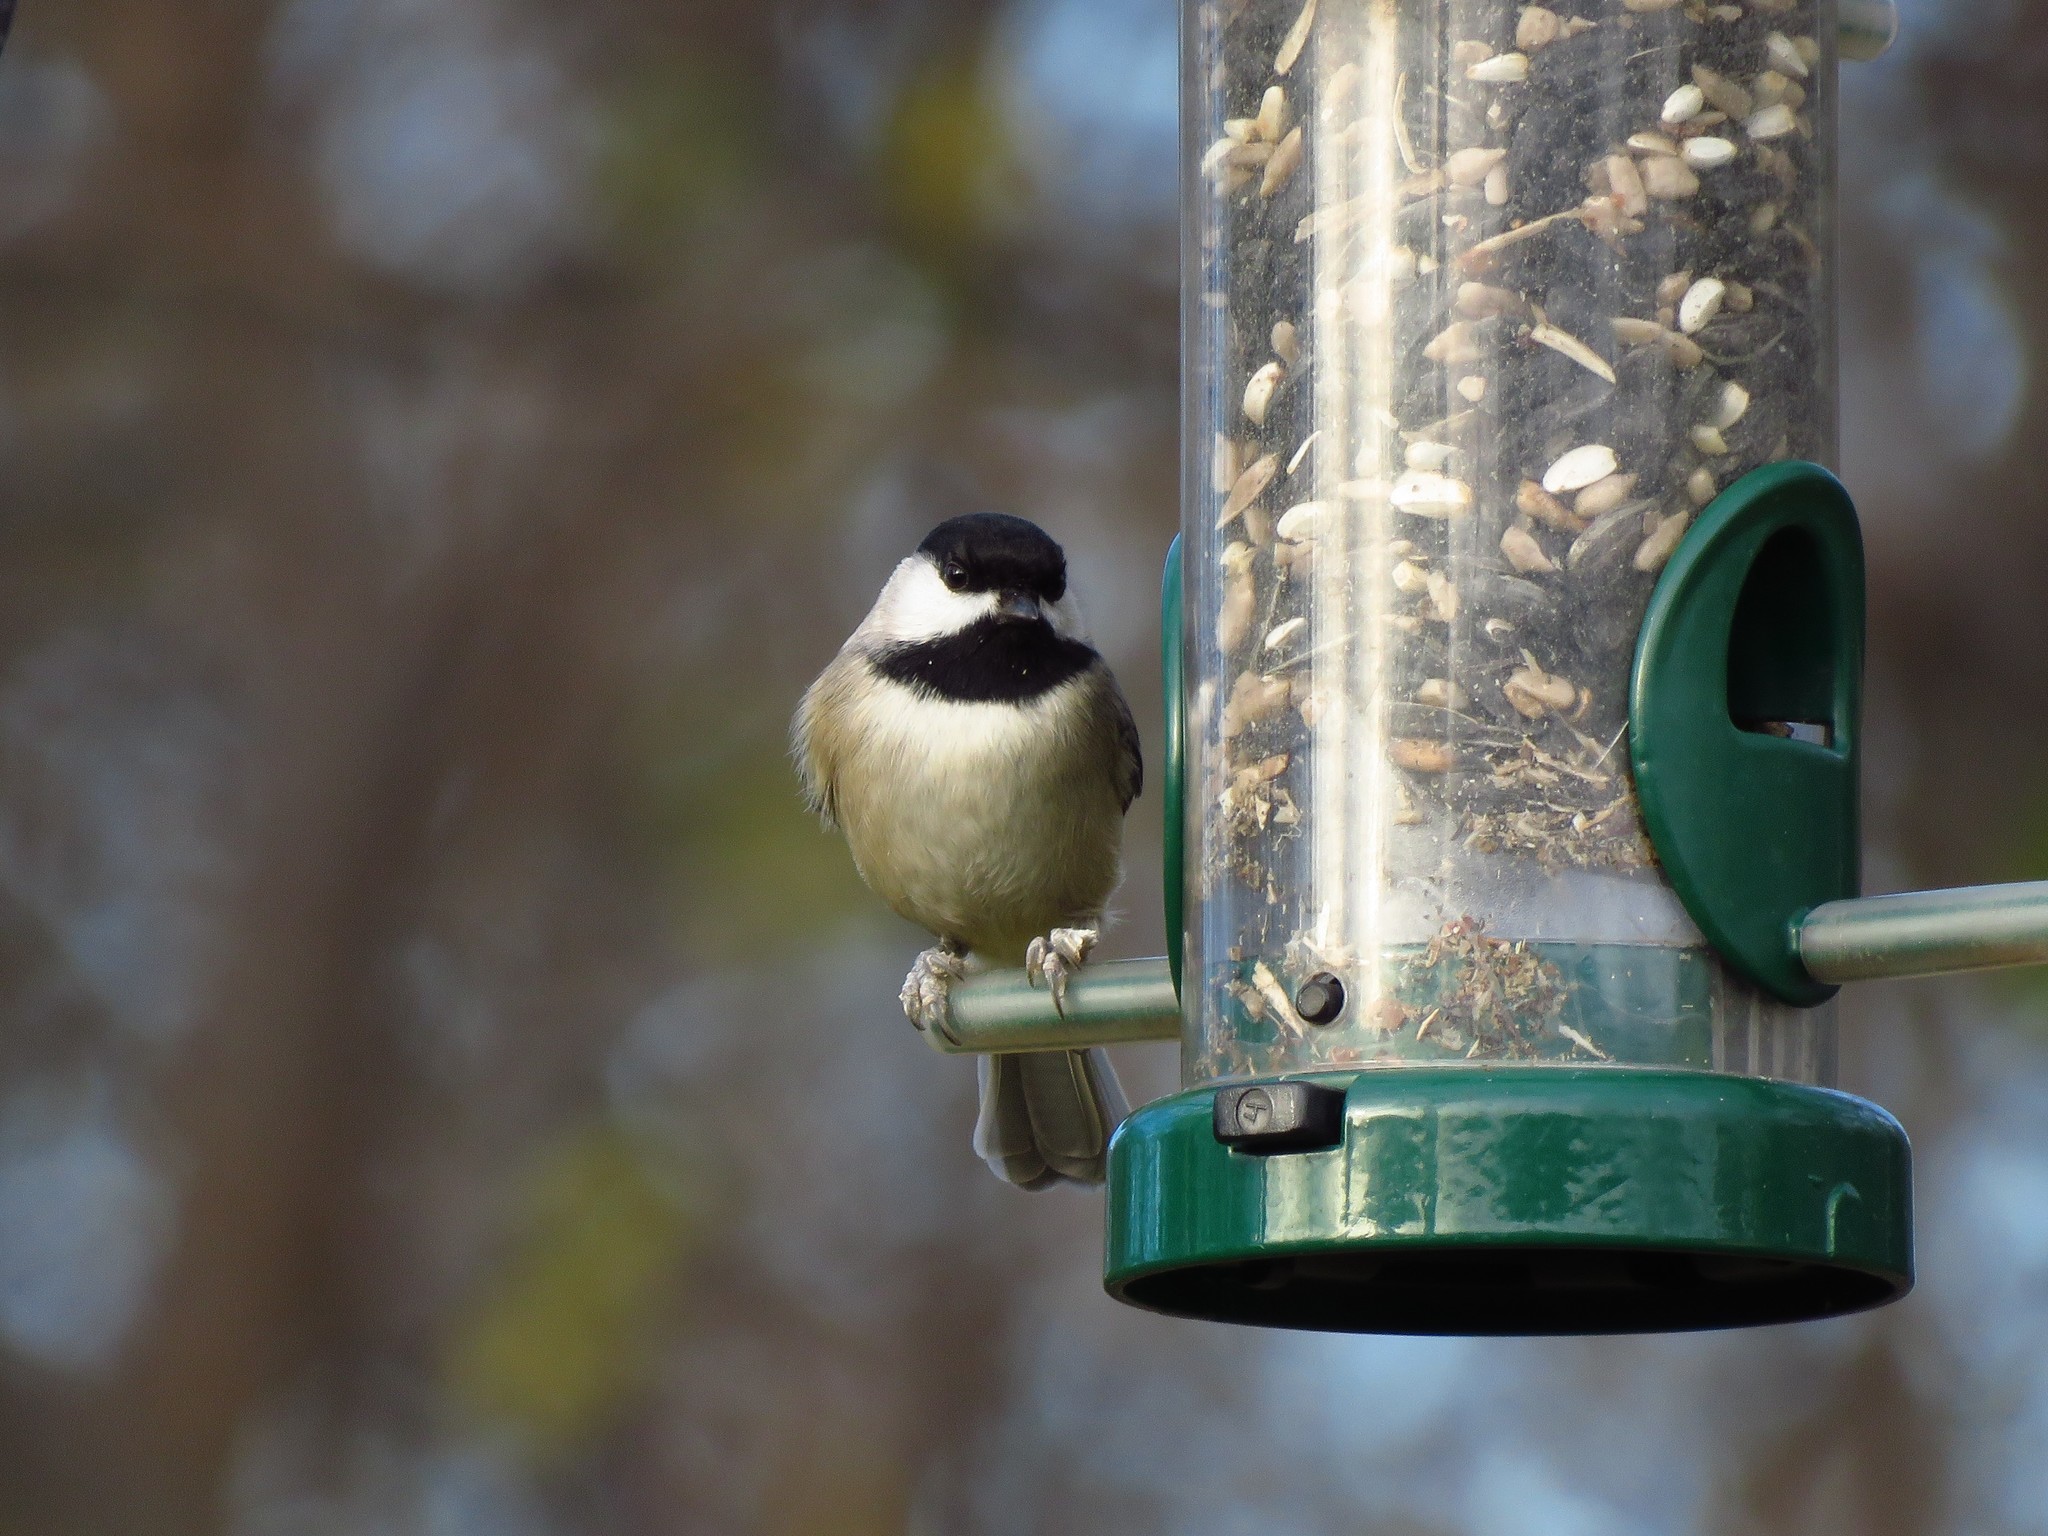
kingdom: Animalia
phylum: Chordata
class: Aves
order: Passeriformes
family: Paridae
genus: Poecile
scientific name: Poecile carolinensis
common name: Carolina chickadee
